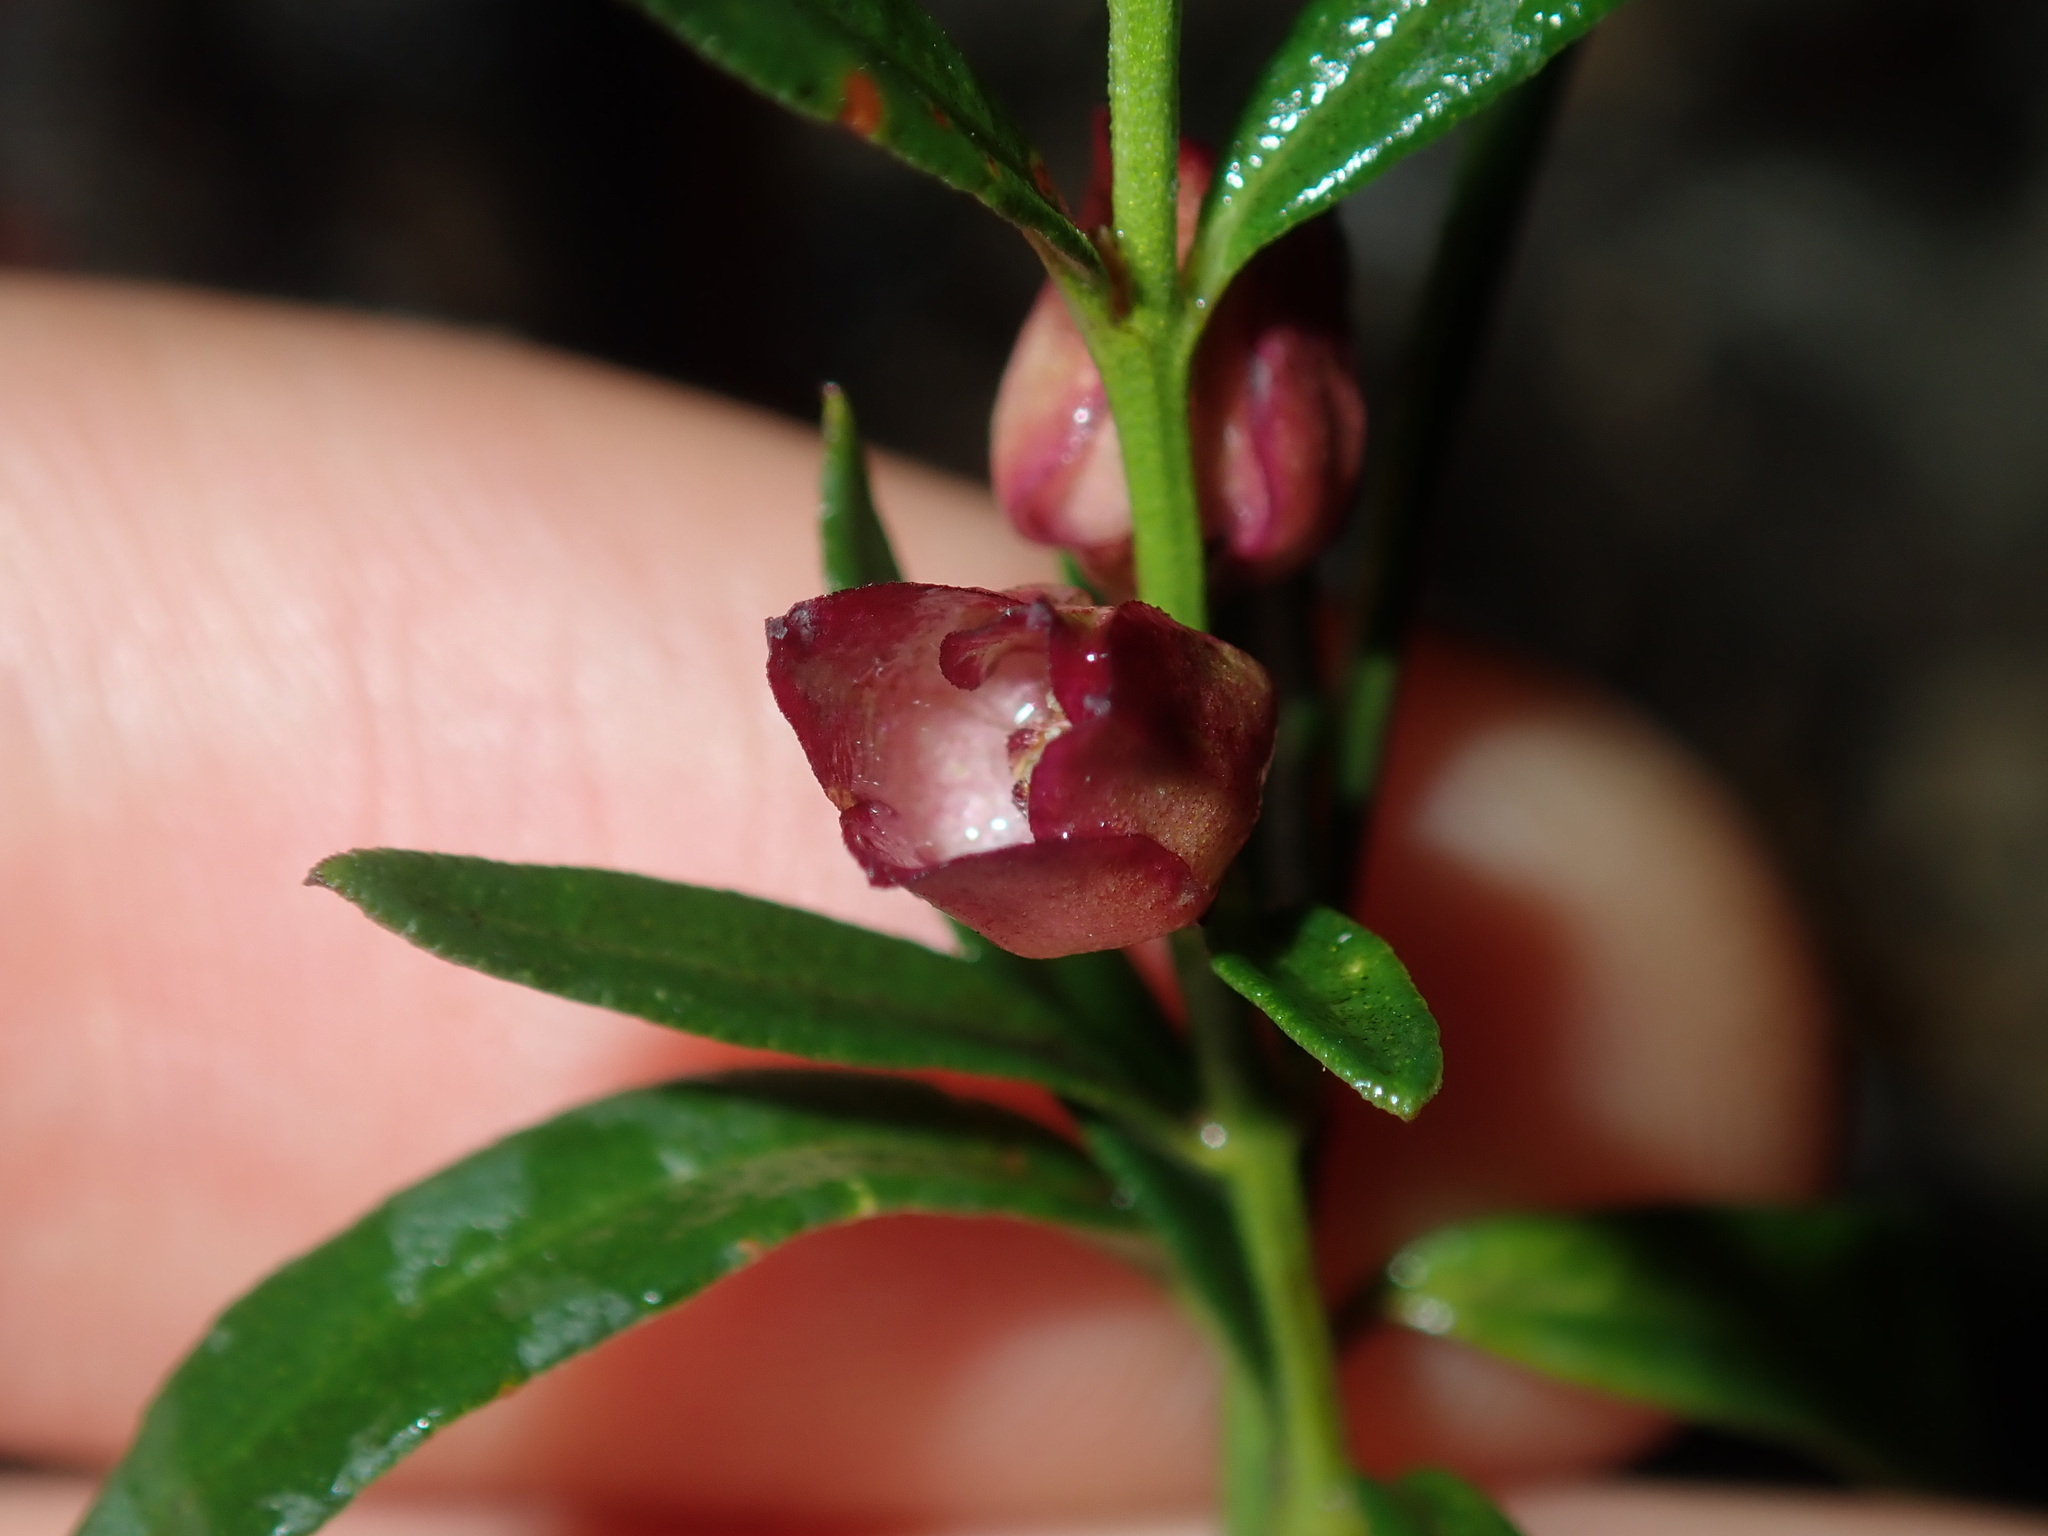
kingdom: Plantae
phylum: Tracheophyta
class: Magnoliopsida
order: Sapindales
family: Rutaceae
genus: Cyanothamnus
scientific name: Cyanothamnus polygalifolius
